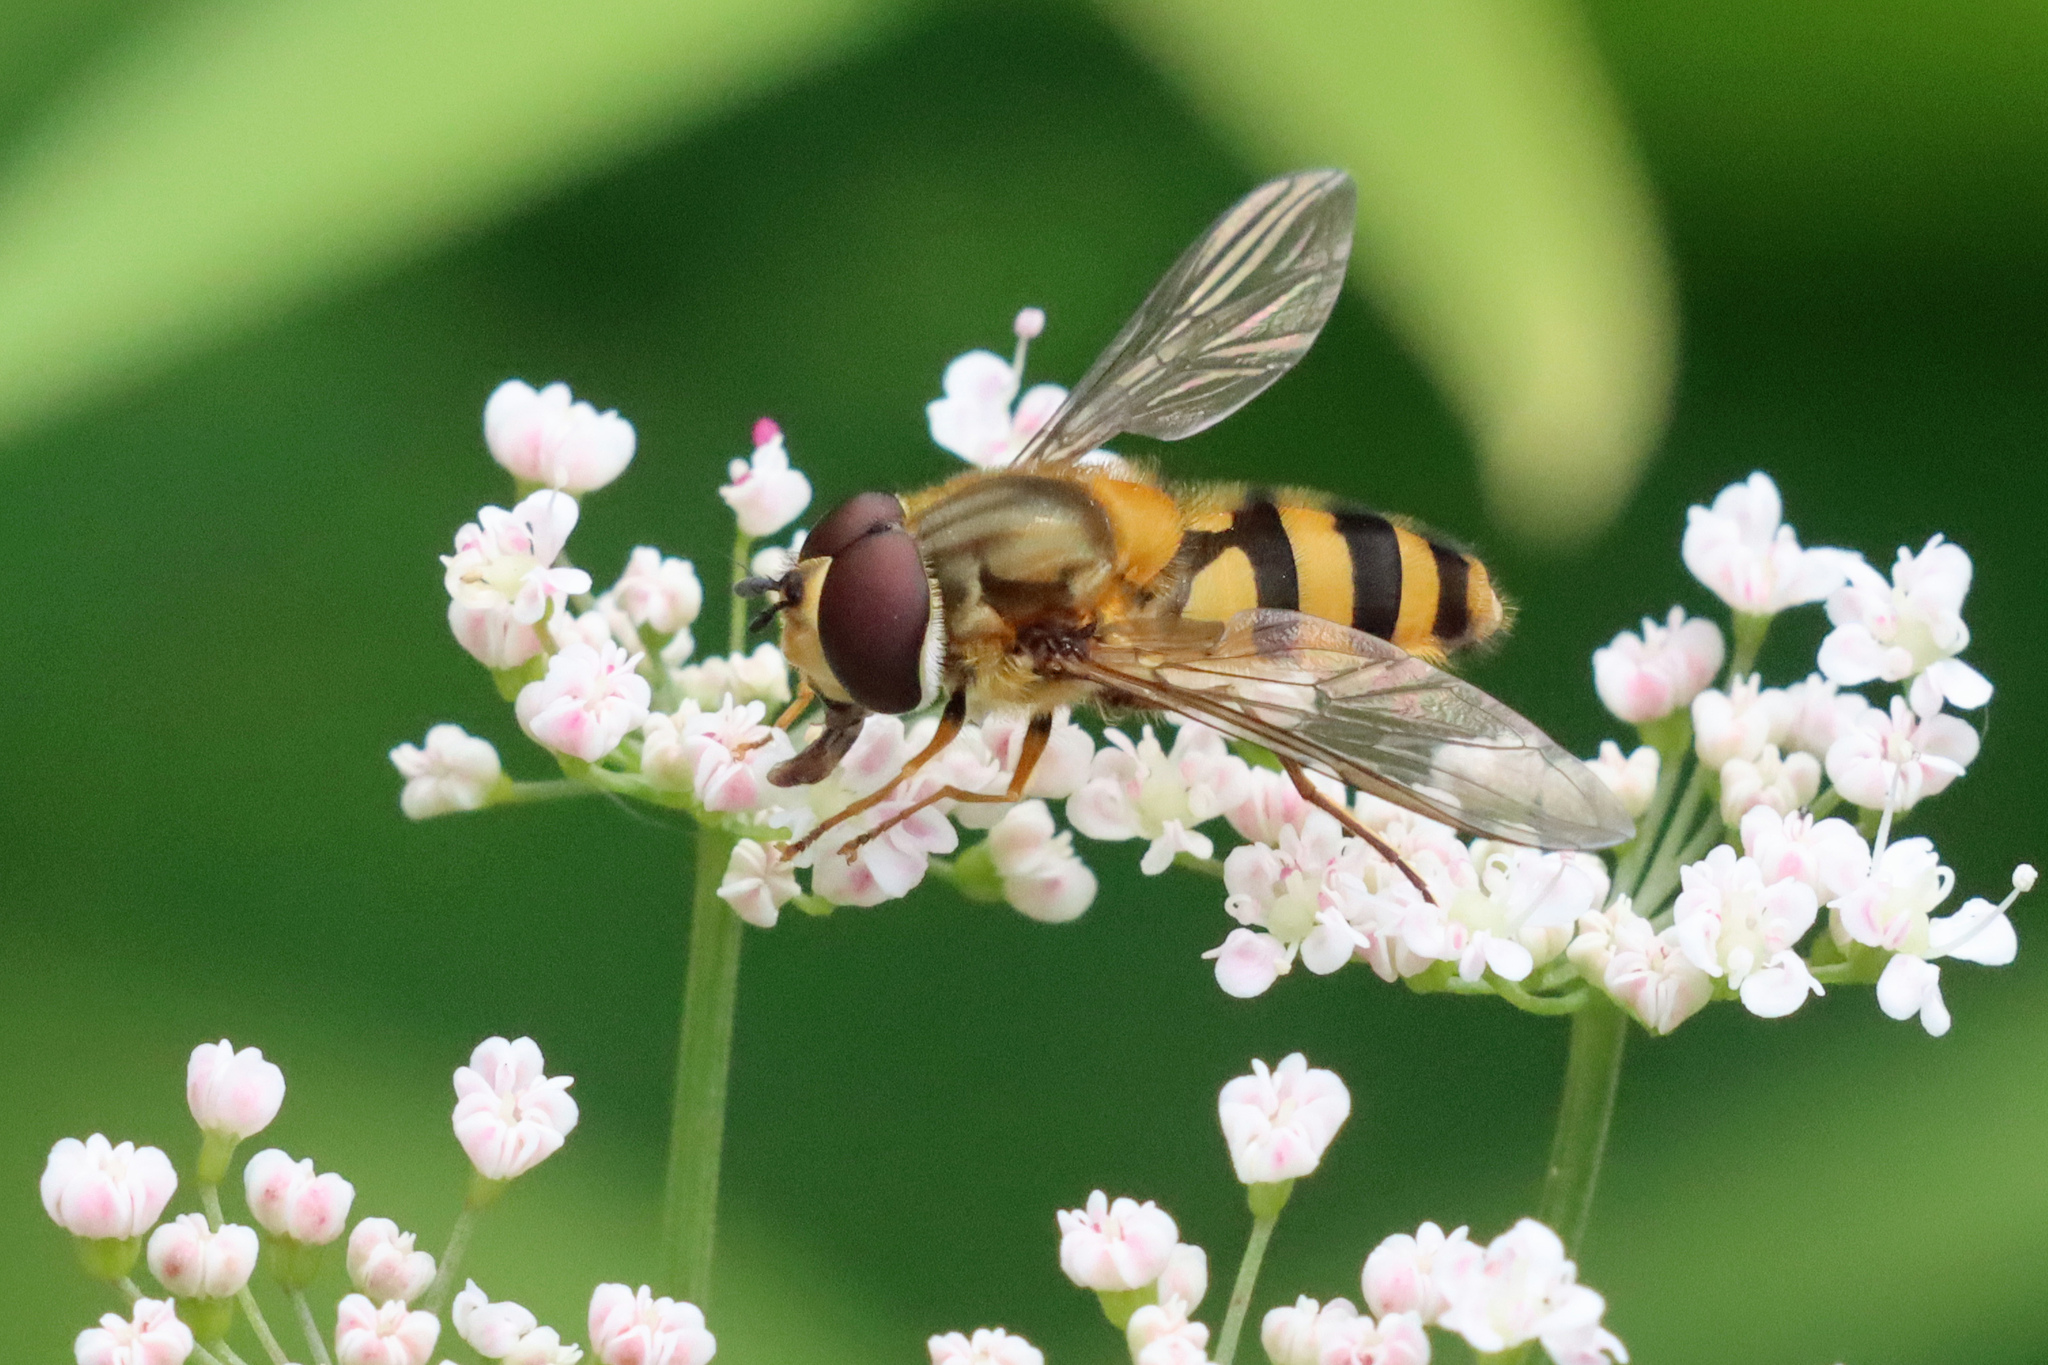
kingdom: Animalia
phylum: Arthropoda
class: Insecta
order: Diptera
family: Syrphidae
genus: Epistrophe
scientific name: Epistrophe grossulariae
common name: Black-horned smoothtail
